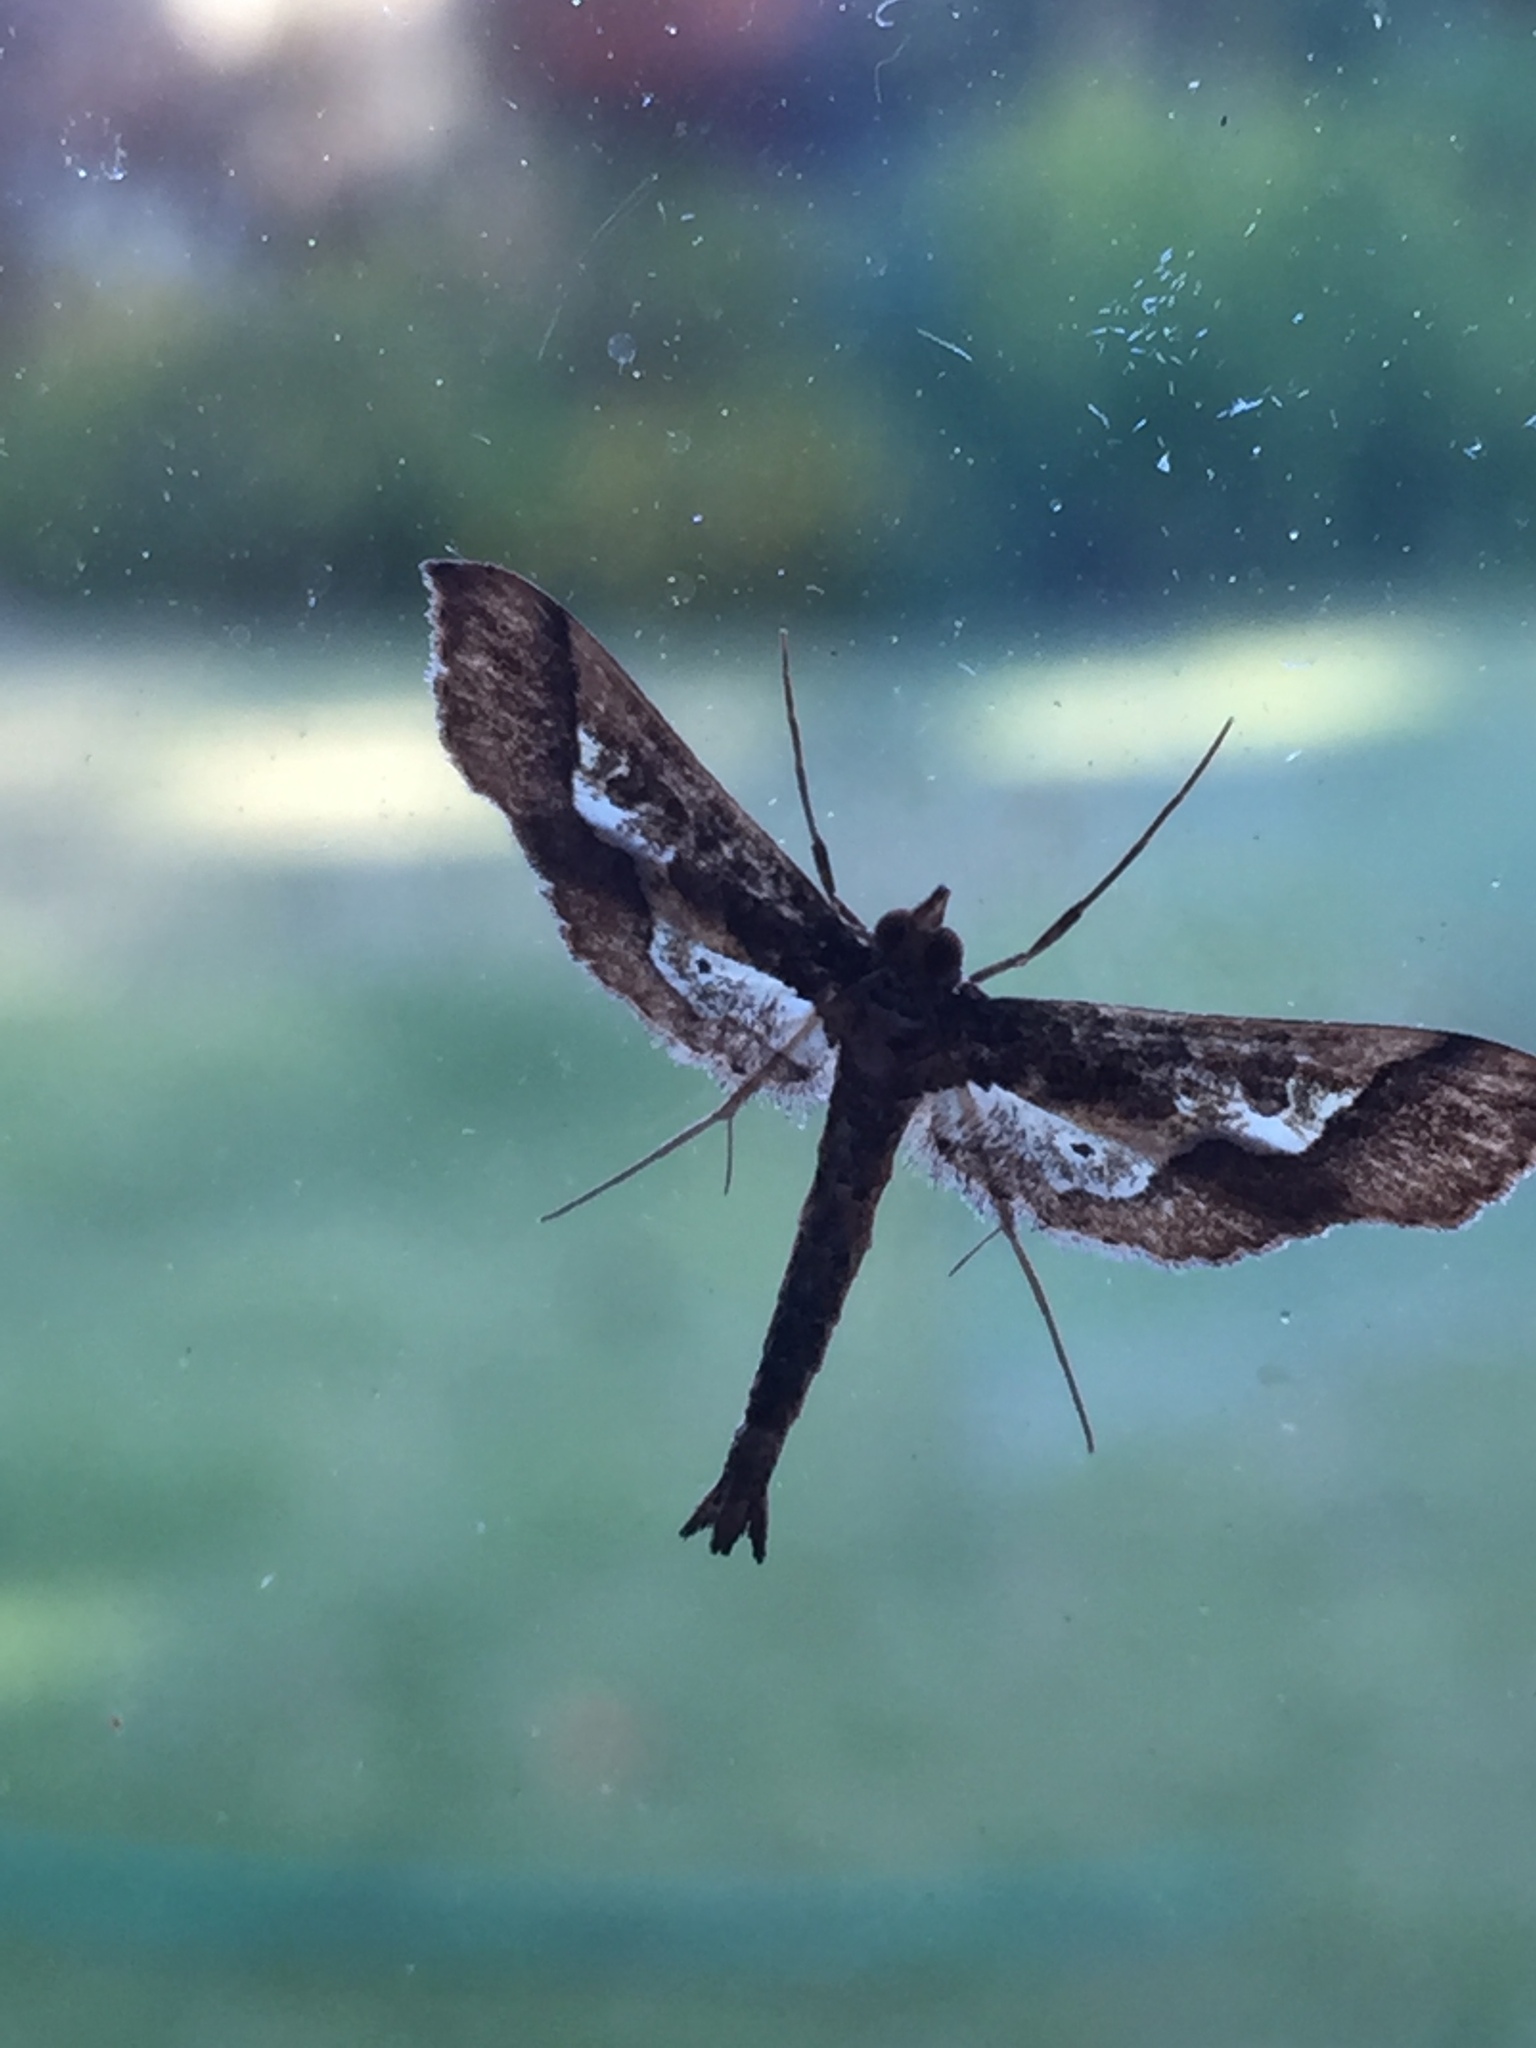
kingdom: Animalia
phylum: Arthropoda
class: Insecta
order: Lepidoptera
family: Crambidae
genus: Hydriris
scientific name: Hydriris ornatalis
